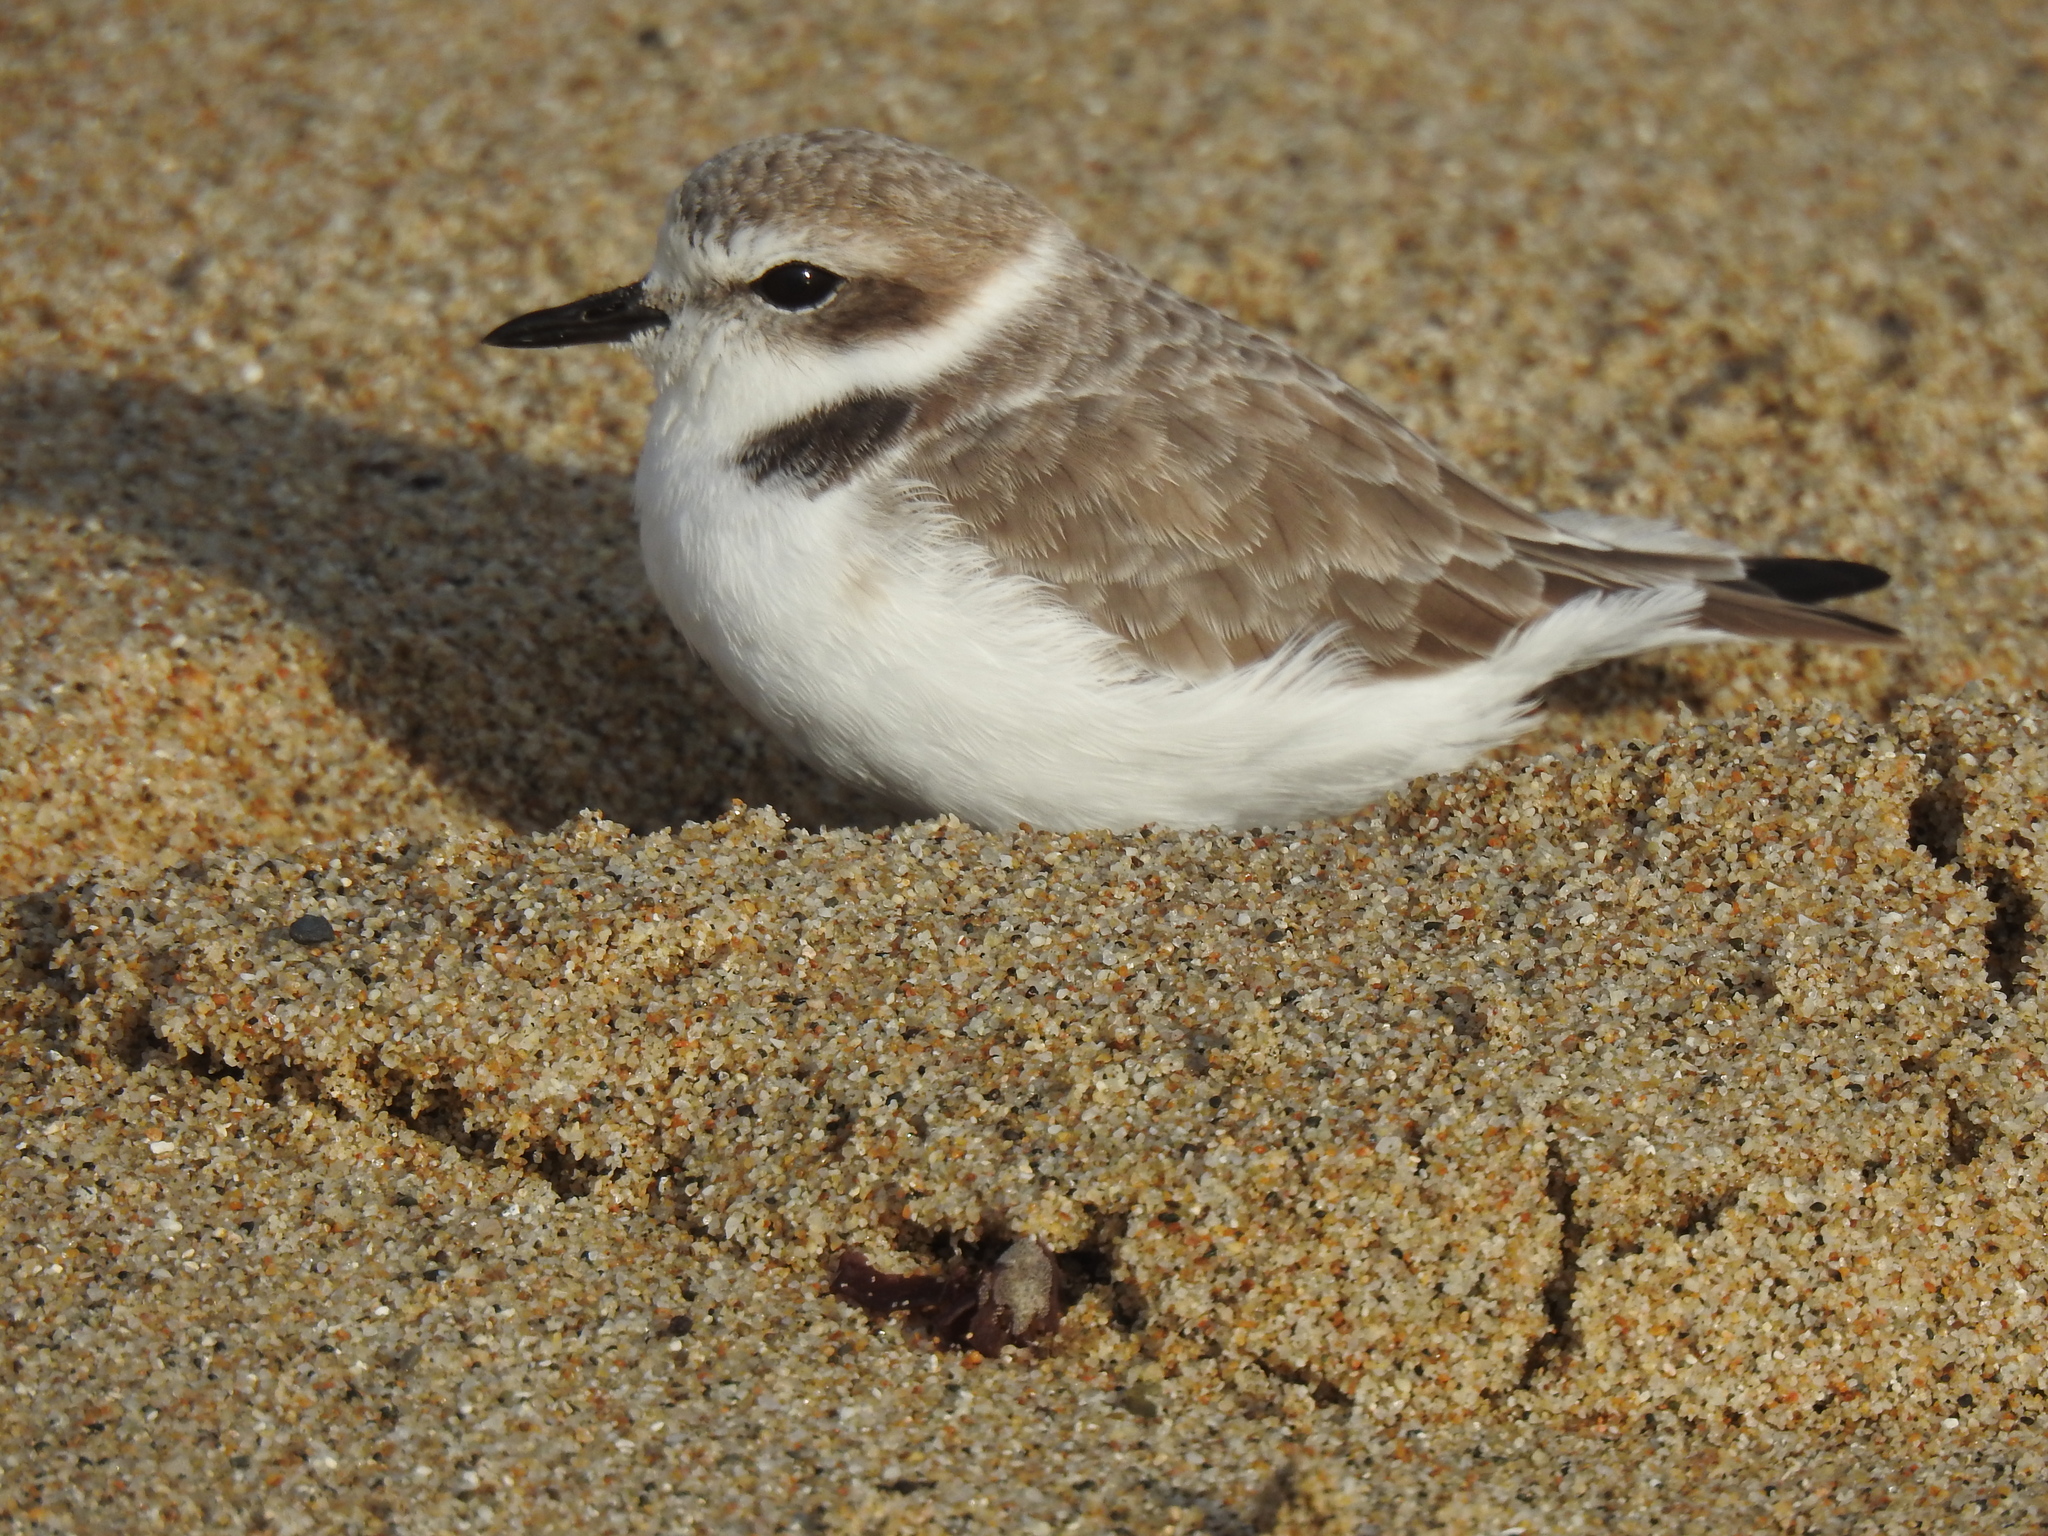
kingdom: Animalia
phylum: Chordata
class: Aves
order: Charadriiformes
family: Charadriidae
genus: Anarhynchus
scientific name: Anarhynchus
